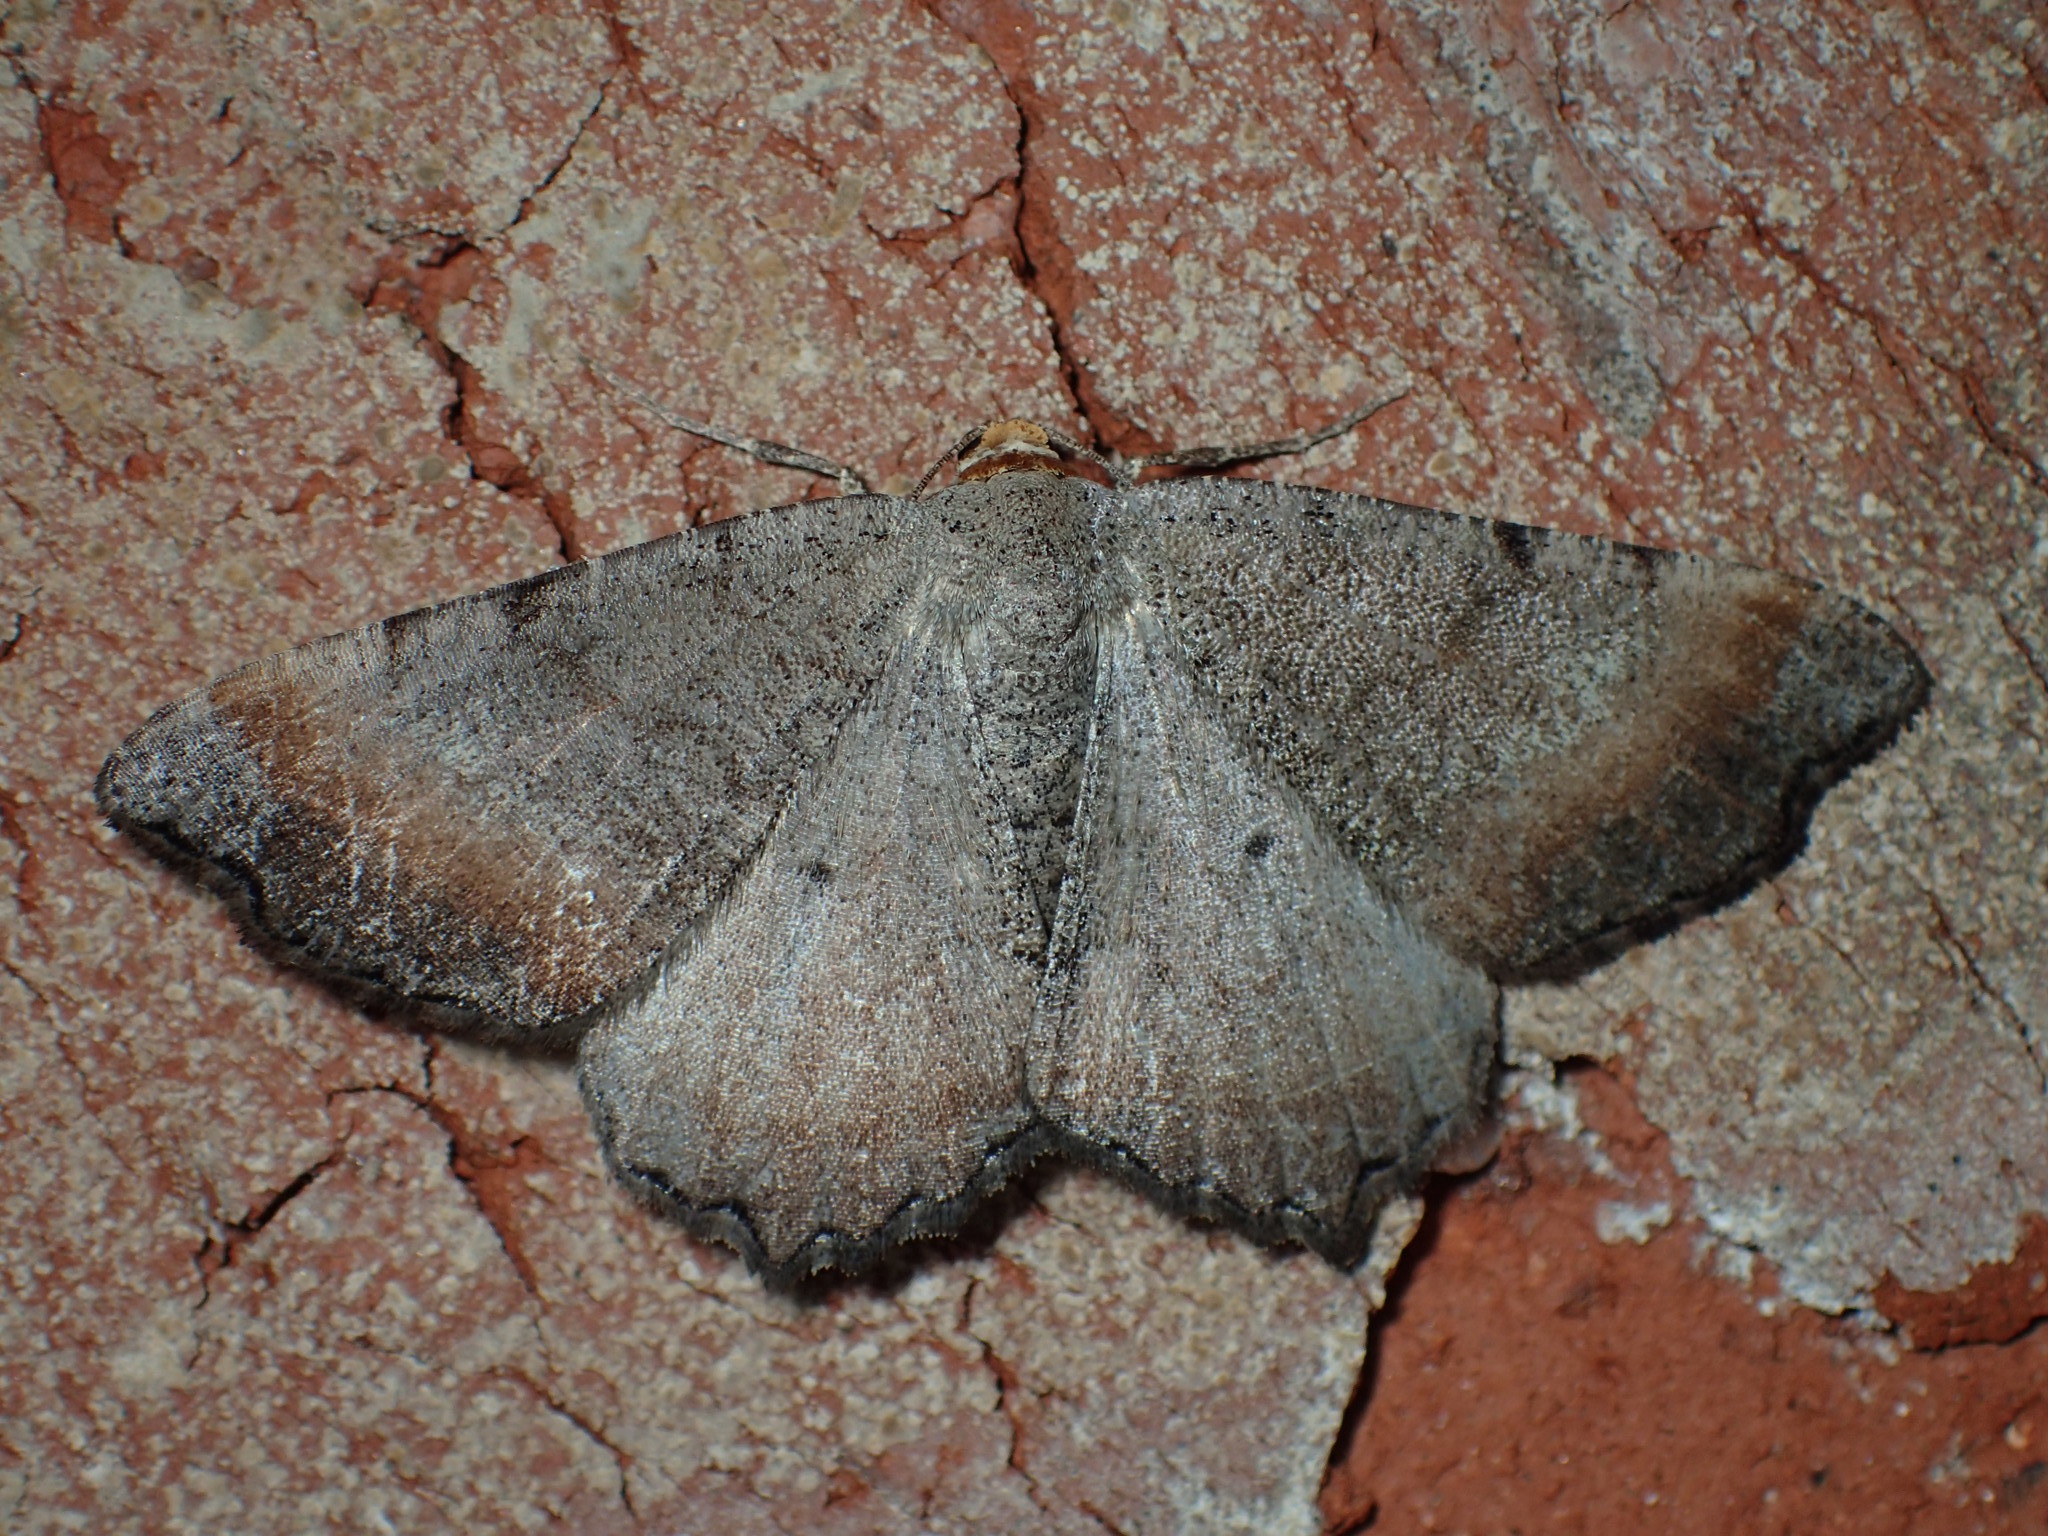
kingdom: Animalia
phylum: Arthropoda
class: Insecta
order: Lepidoptera
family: Geometridae
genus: Macaria
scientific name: Macaria transitaria
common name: Blurry chocolate angle
